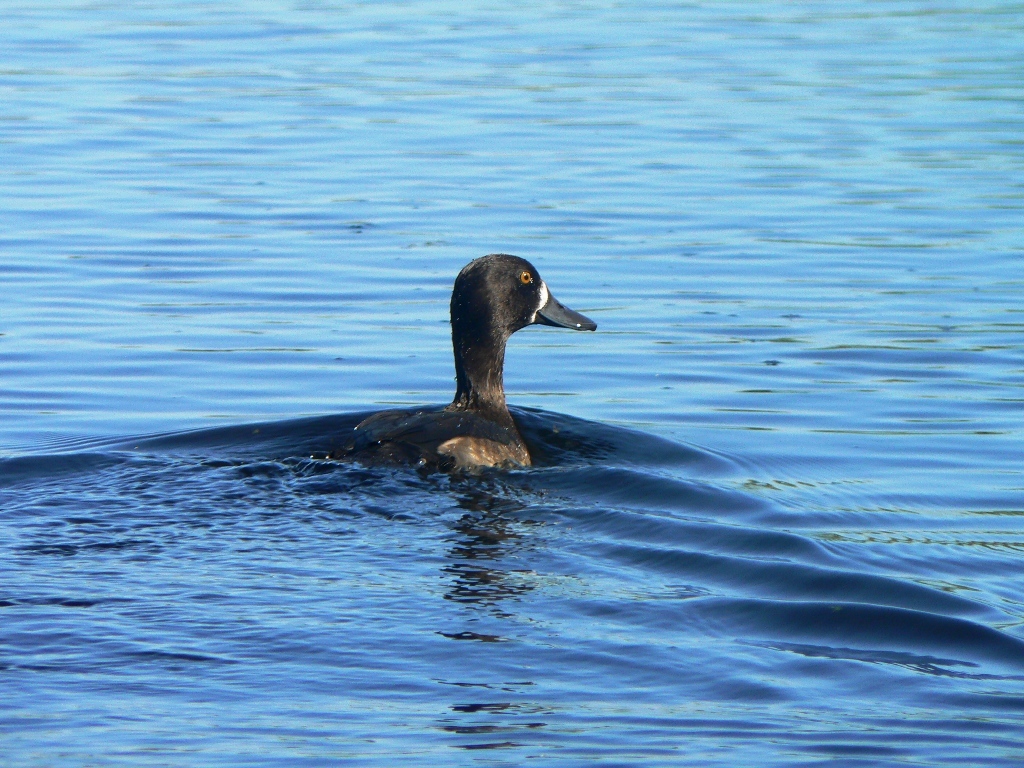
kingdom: Animalia
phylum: Chordata
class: Aves
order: Anseriformes
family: Anatidae
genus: Aythya
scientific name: Aythya fuligula
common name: Tufted duck
